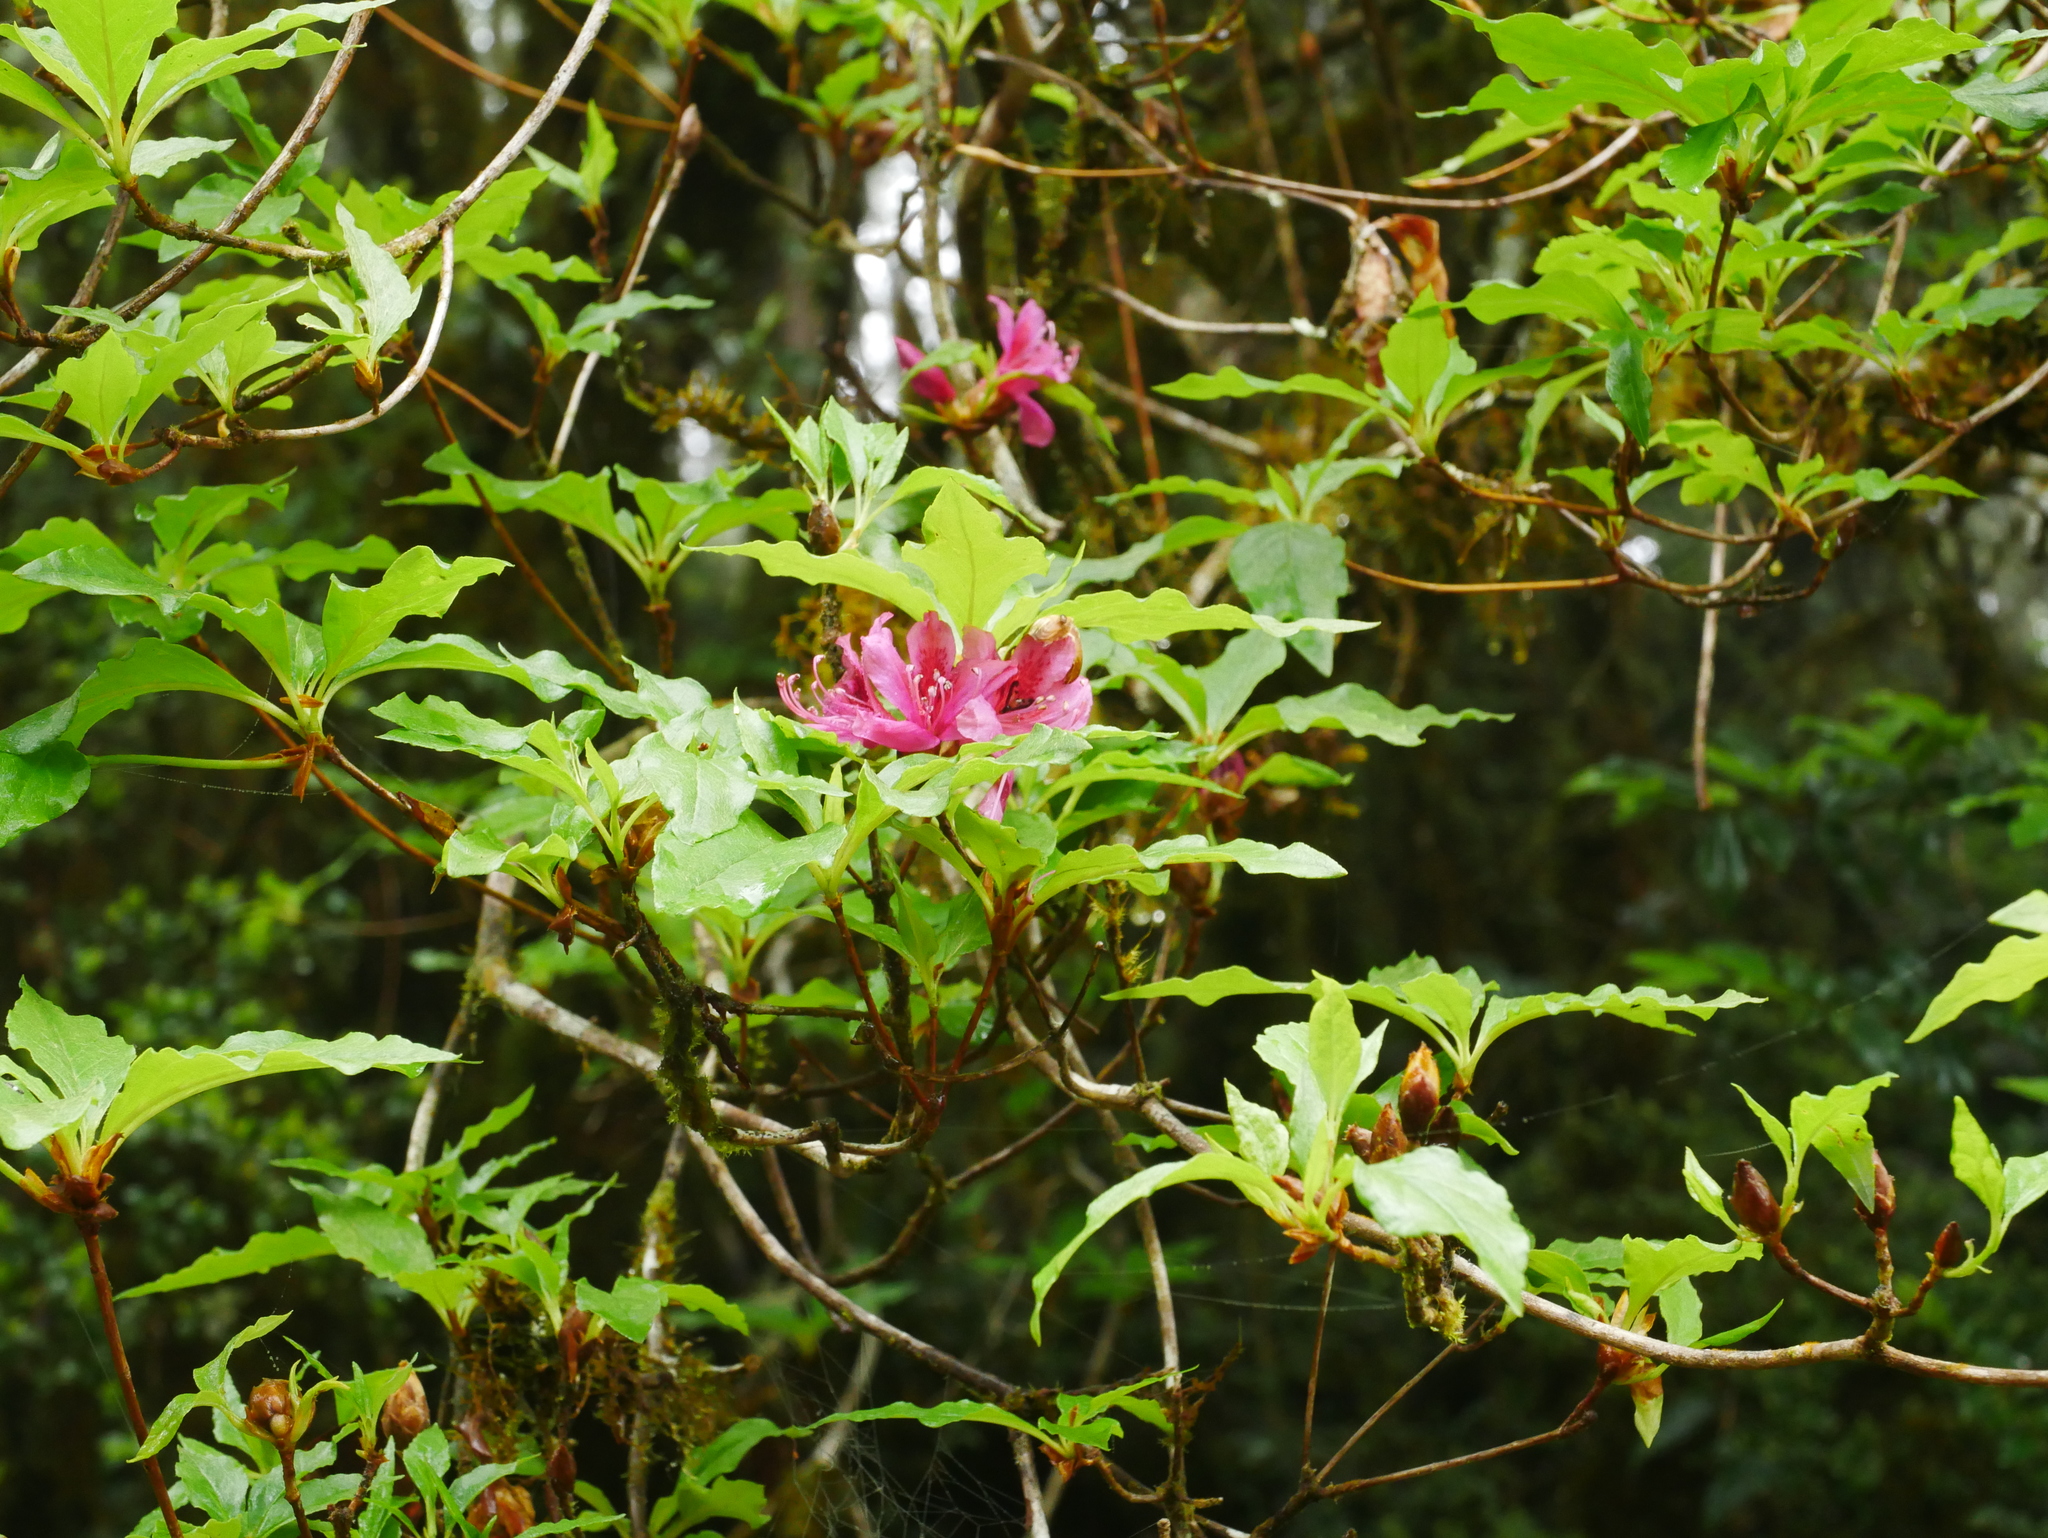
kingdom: Plantae
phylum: Tracheophyta
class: Magnoliopsida
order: Ericales
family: Ericaceae
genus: Rhododendron
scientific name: Rhododendron chilanshanense
